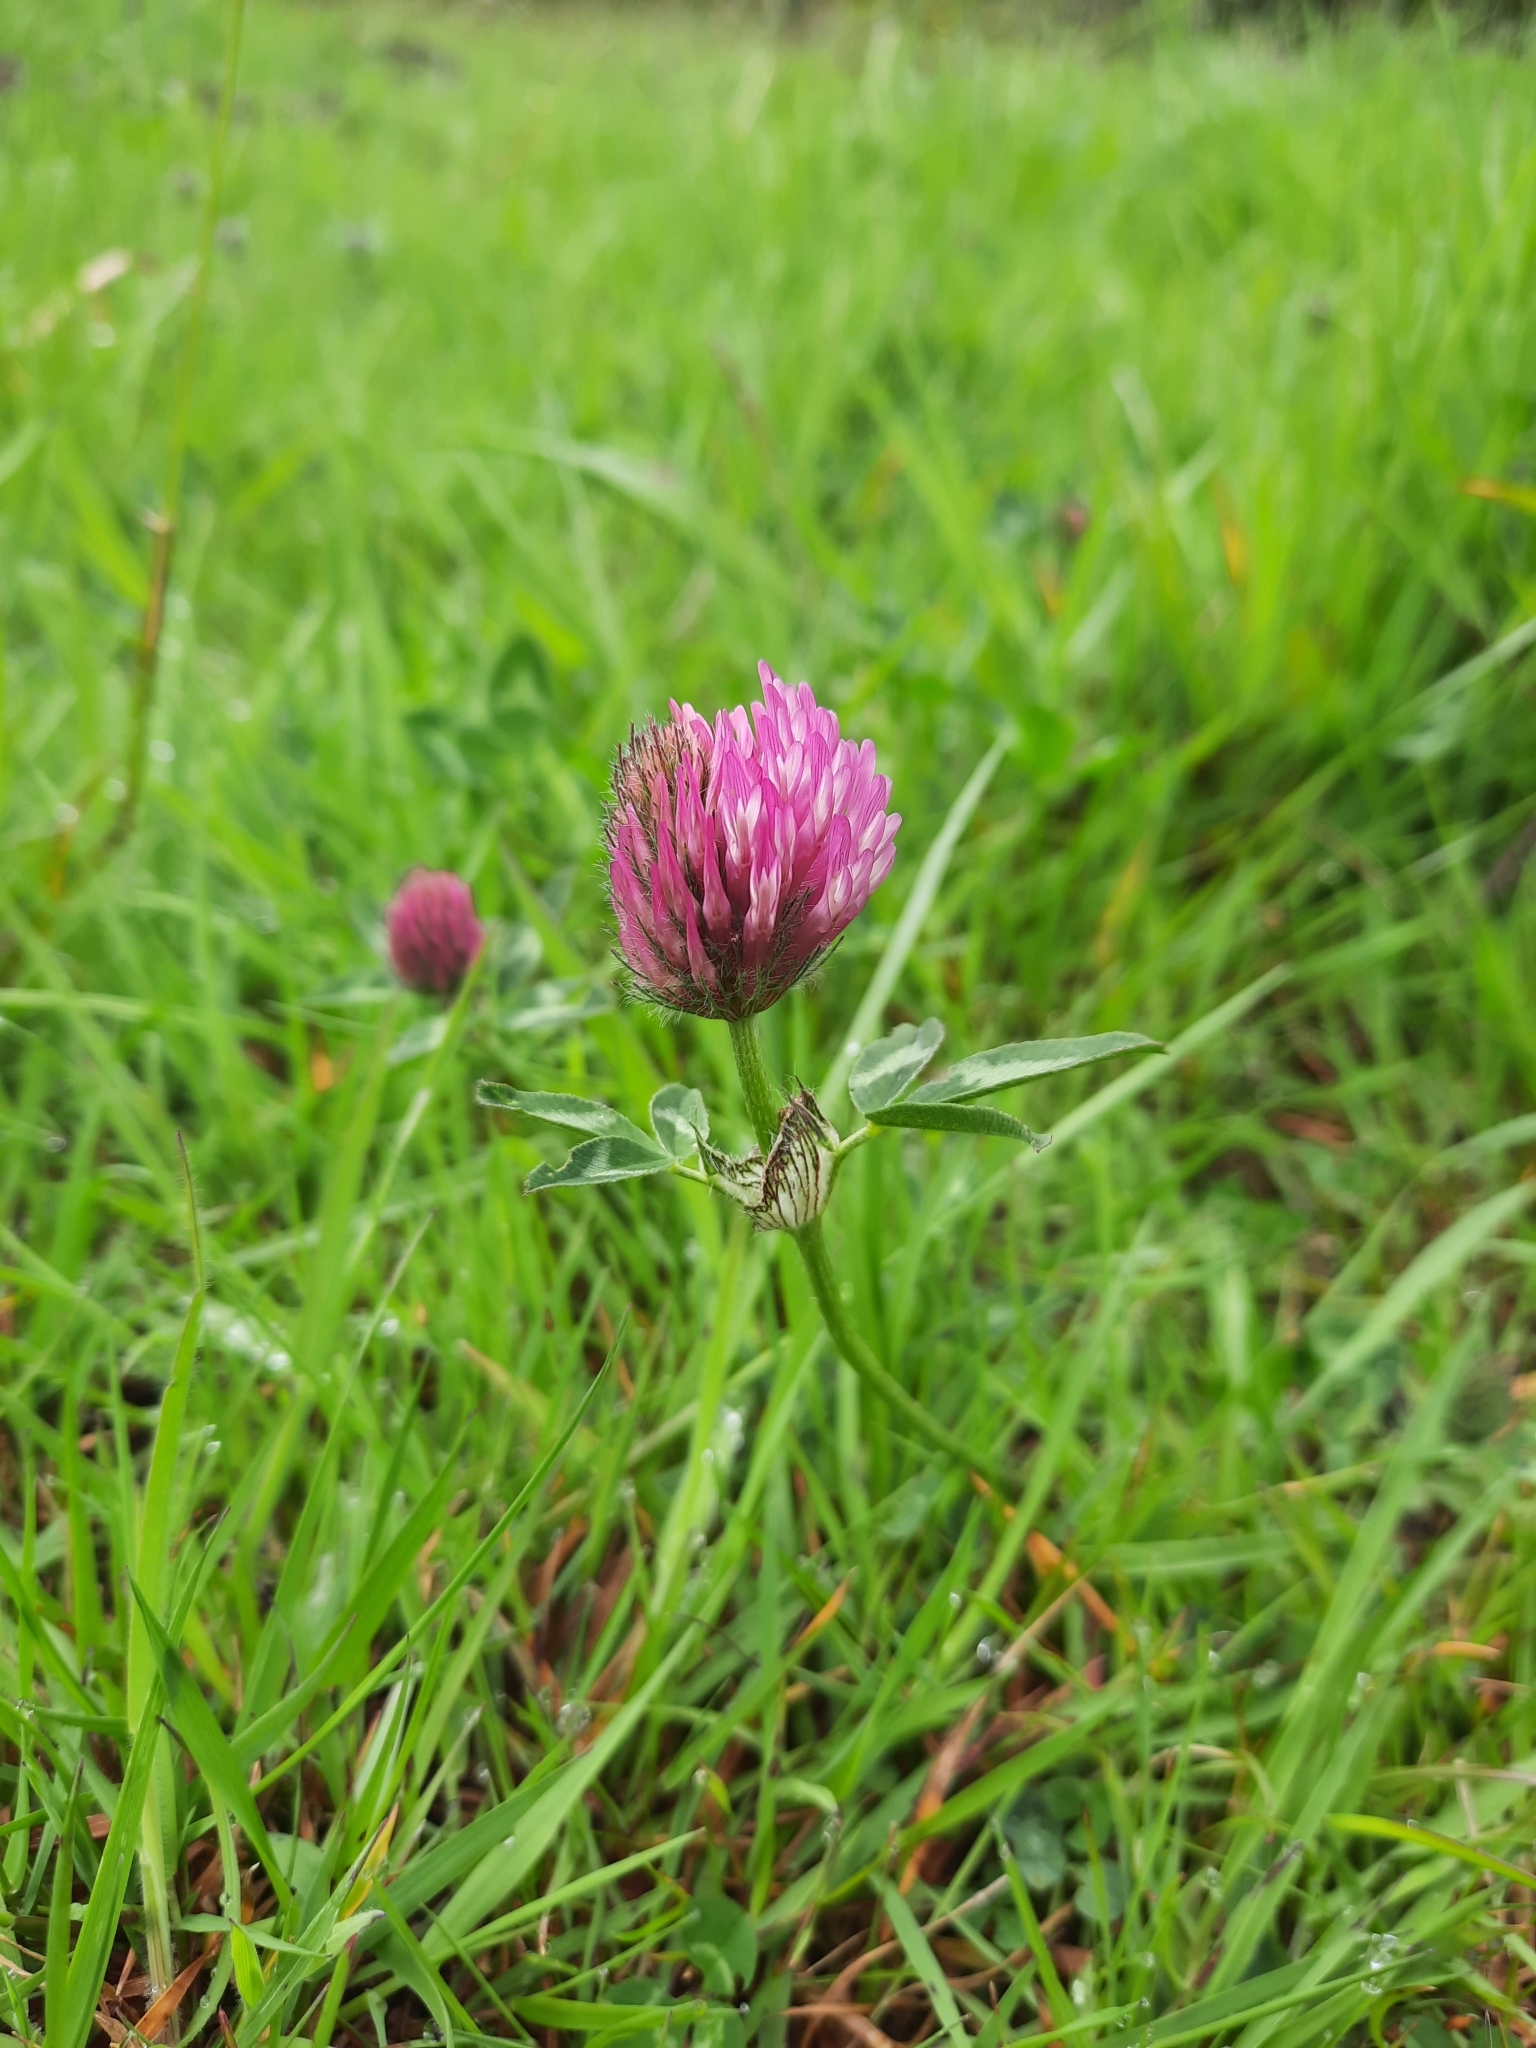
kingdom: Plantae
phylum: Tracheophyta
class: Magnoliopsida
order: Fabales
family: Fabaceae
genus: Trifolium
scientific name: Trifolium pratense
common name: Red clover
